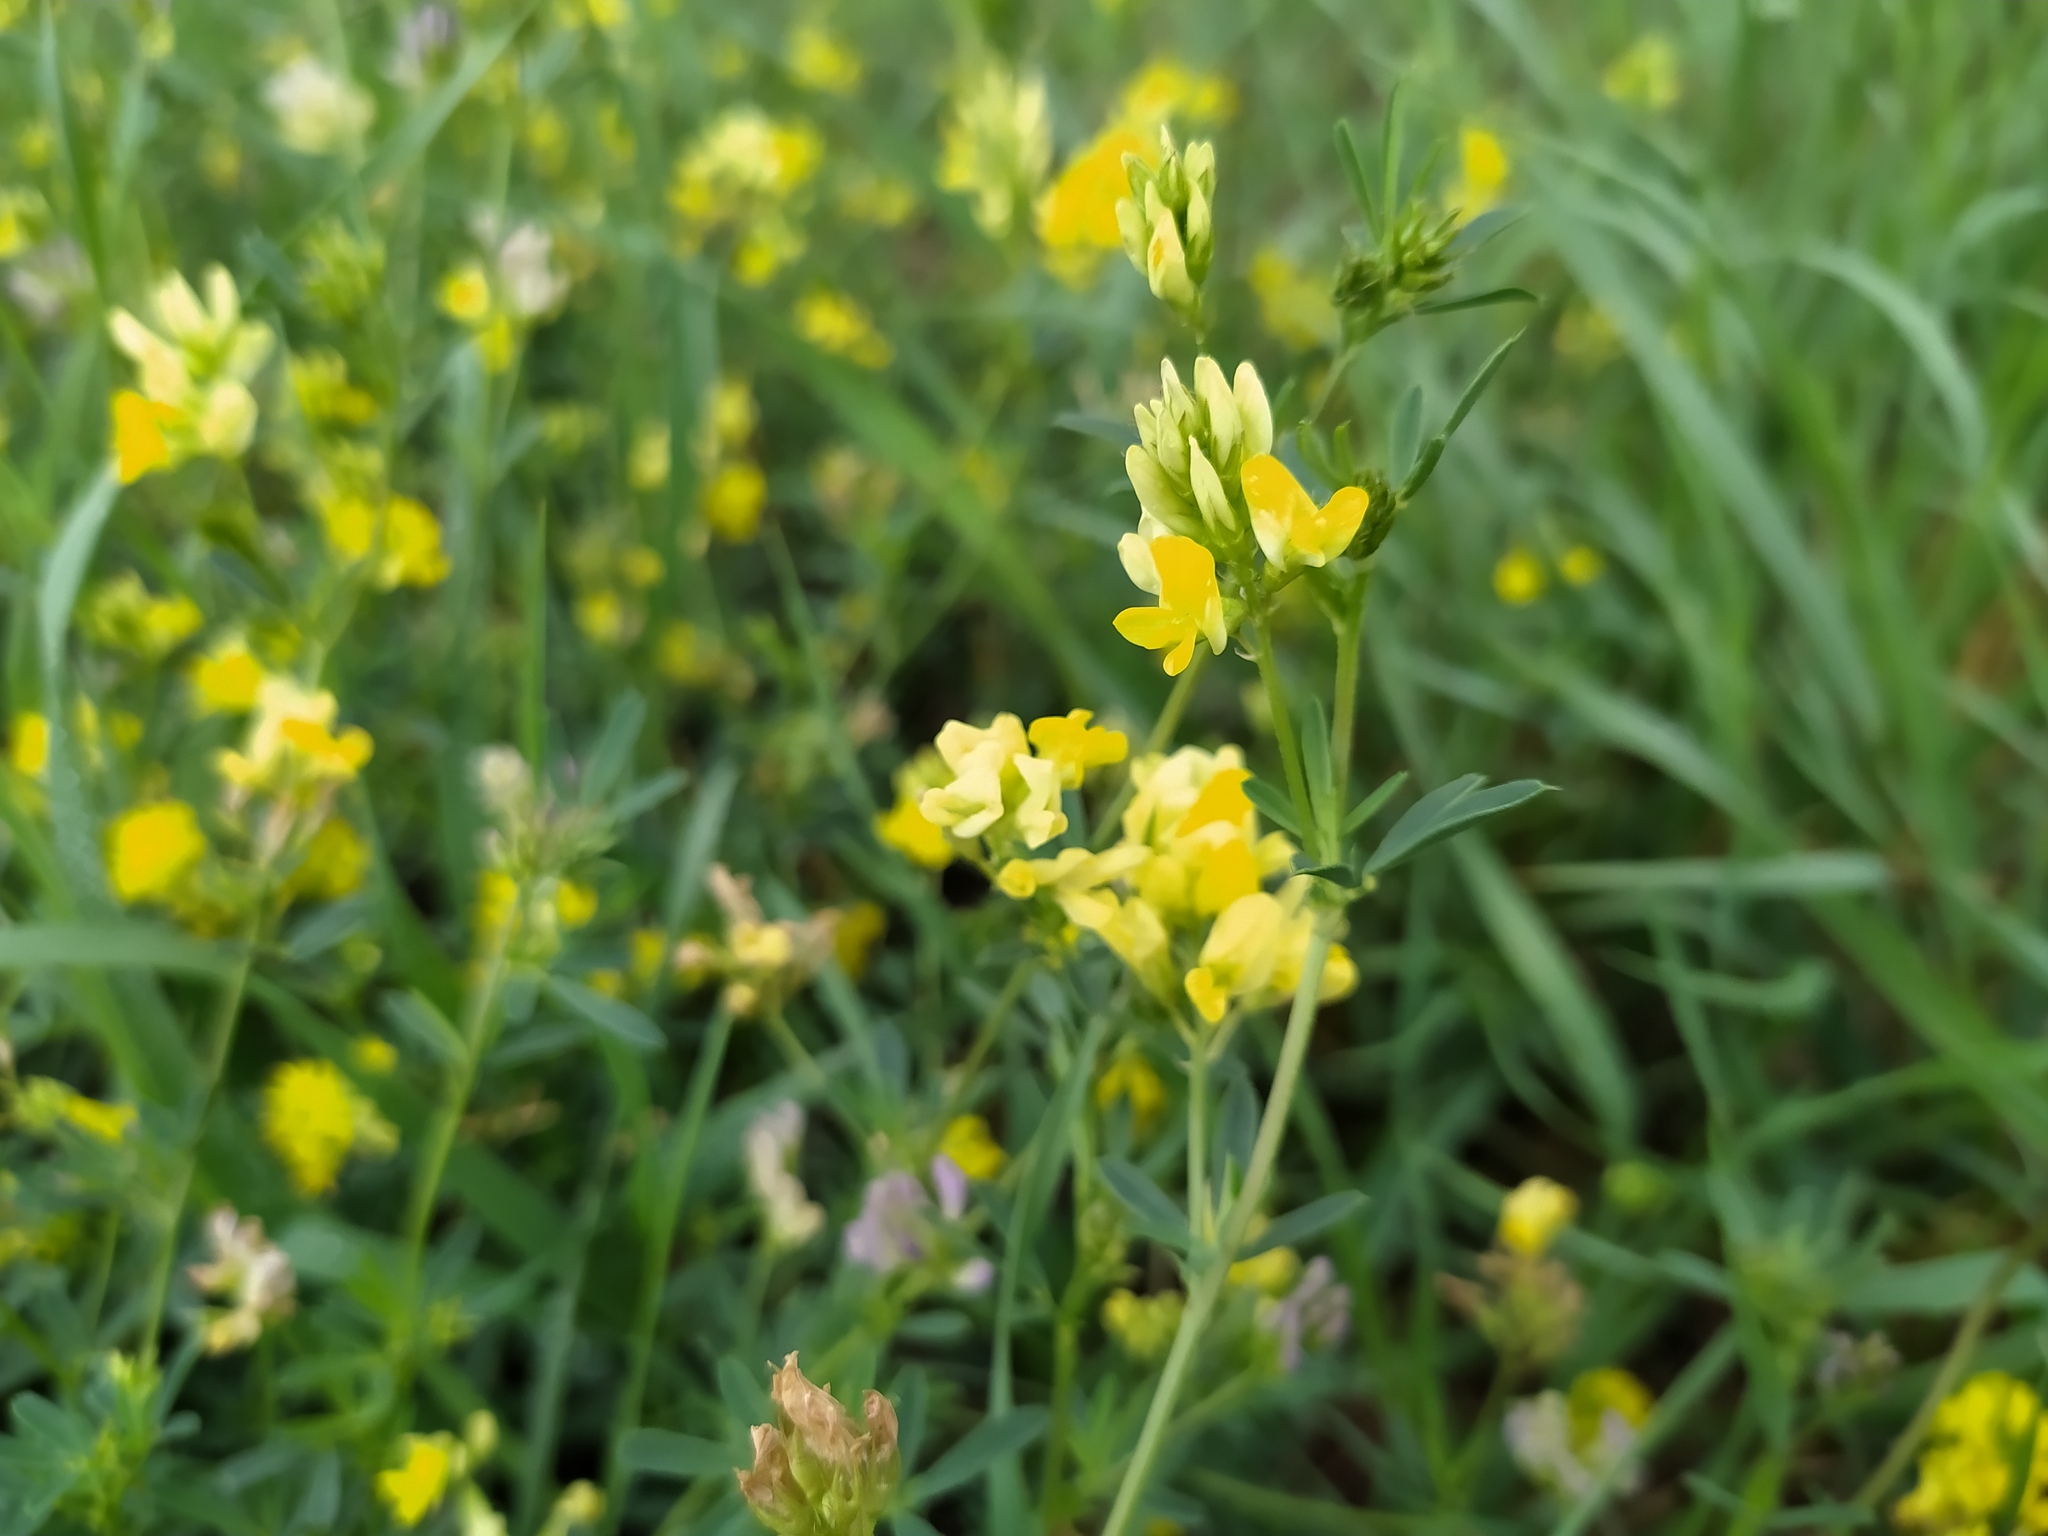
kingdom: Plantae
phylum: Tracheophyta
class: Magnoliopsida
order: Fabales
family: Fabaceae
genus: Medicago
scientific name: Medicago varia
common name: Sand lucerne
